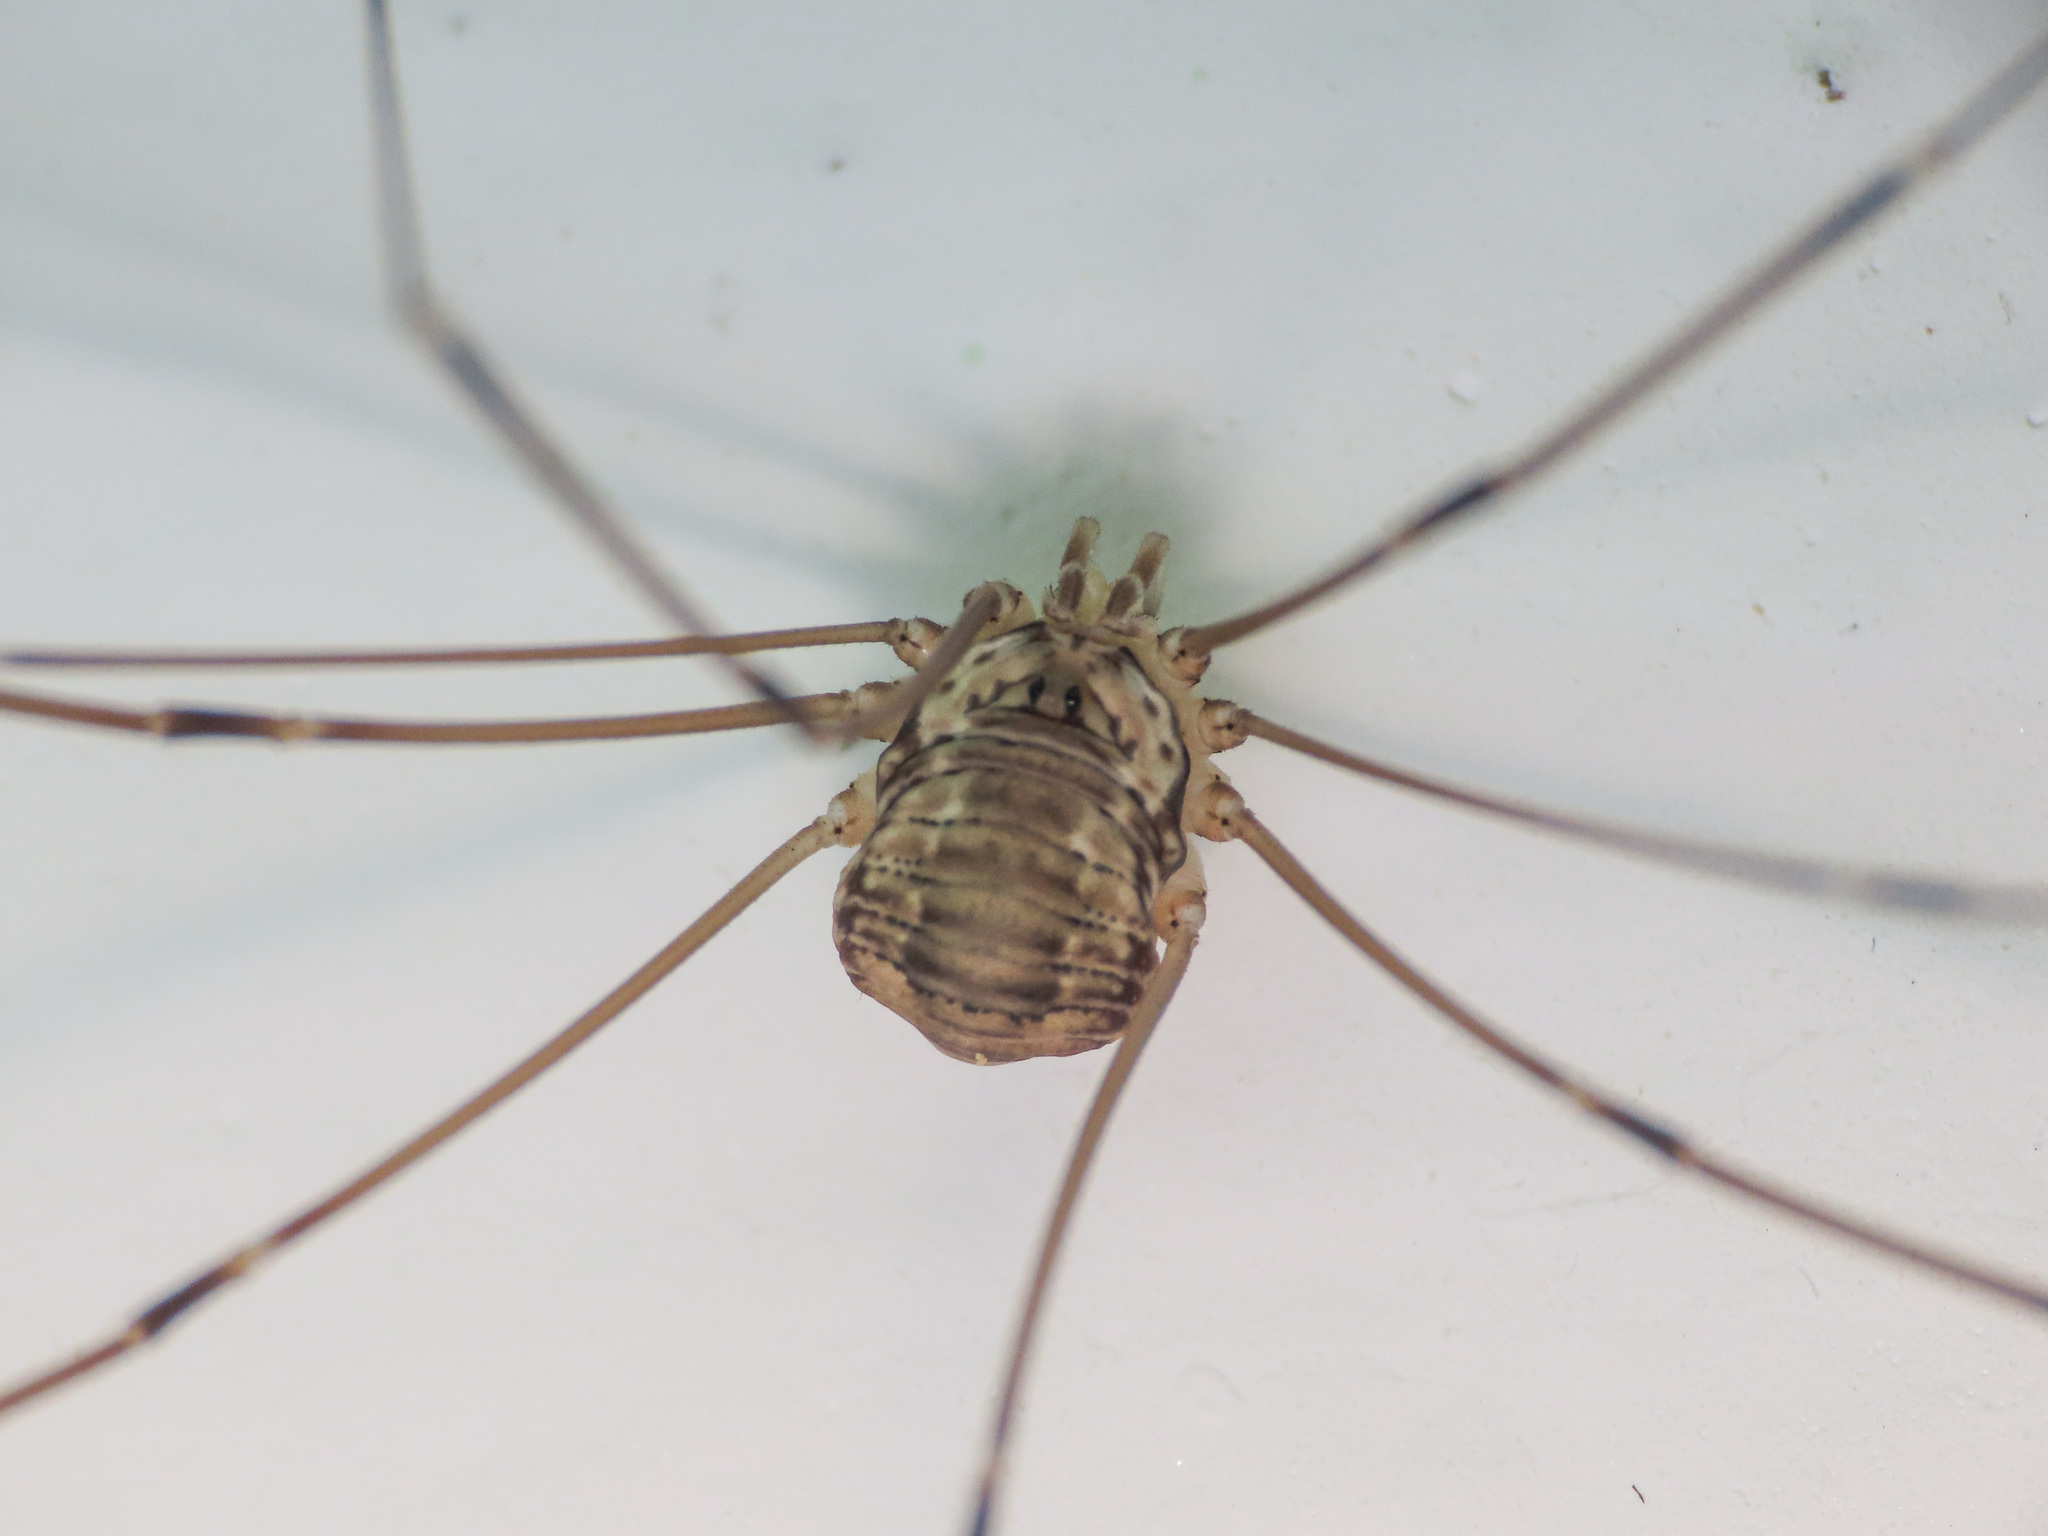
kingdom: Animalia
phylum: Arthropoda
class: Arachnida
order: Opiliones
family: Sclerosomatidae
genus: Leiobunum
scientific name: Leiobunum limbatum
